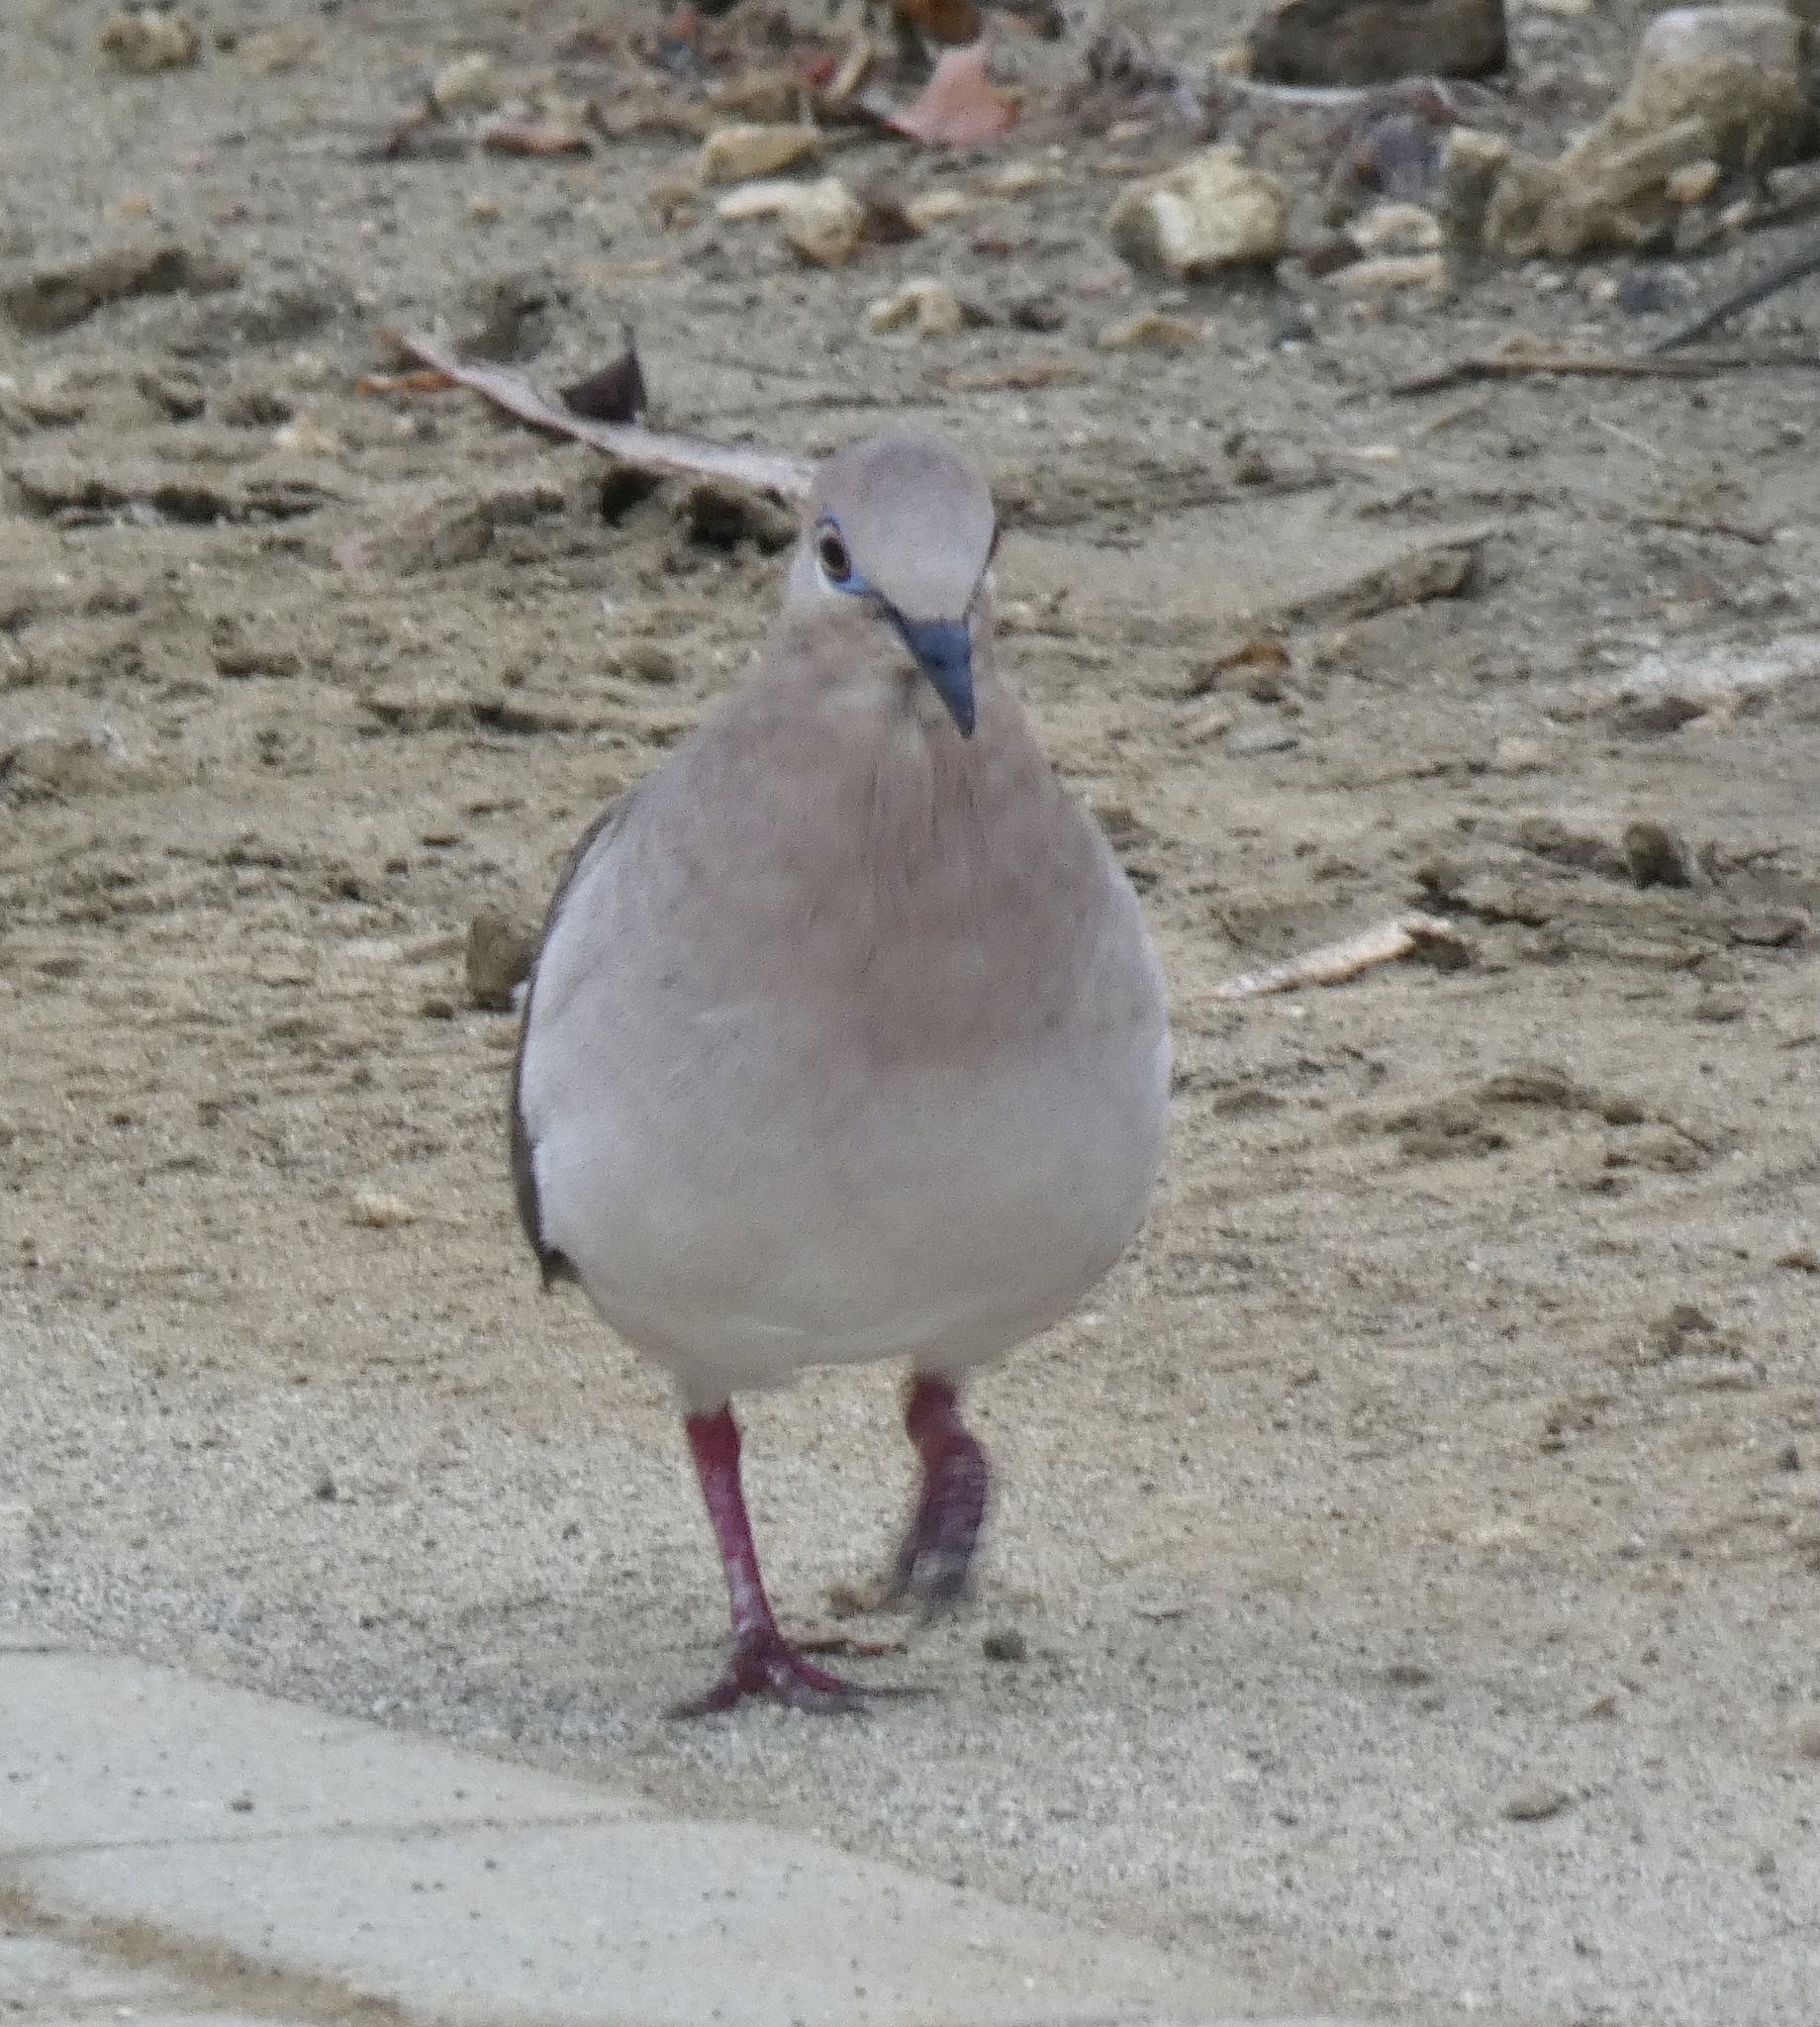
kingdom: Animalia
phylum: Chordata
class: Aves
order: Columbiformes
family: Columbidae
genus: Leptotila
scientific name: Leptotila verreauxi
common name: White-tipped dove
